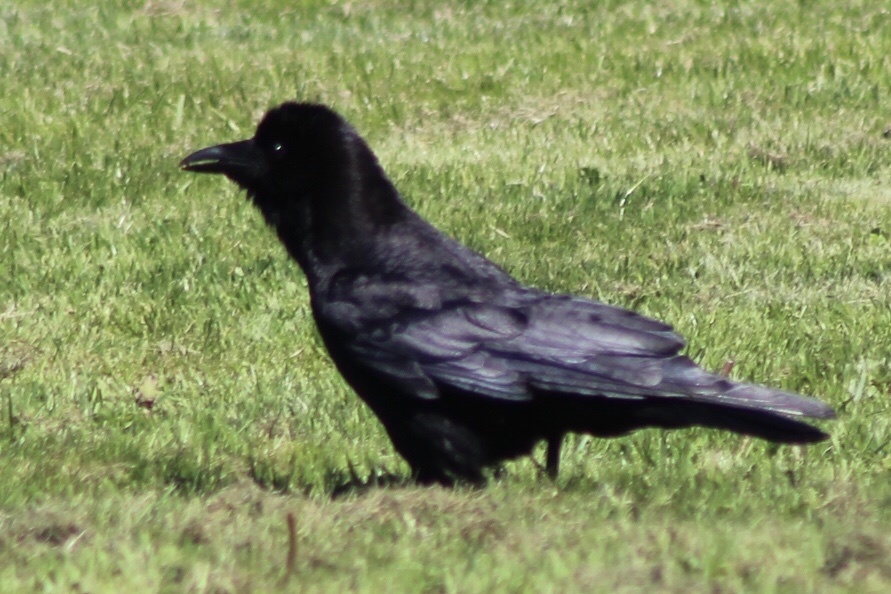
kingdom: Animalia
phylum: Chordata
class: Aves
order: Passeriformes
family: Corvidae
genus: Corvus
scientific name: Corvus brachyrhynchos
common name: American crow
